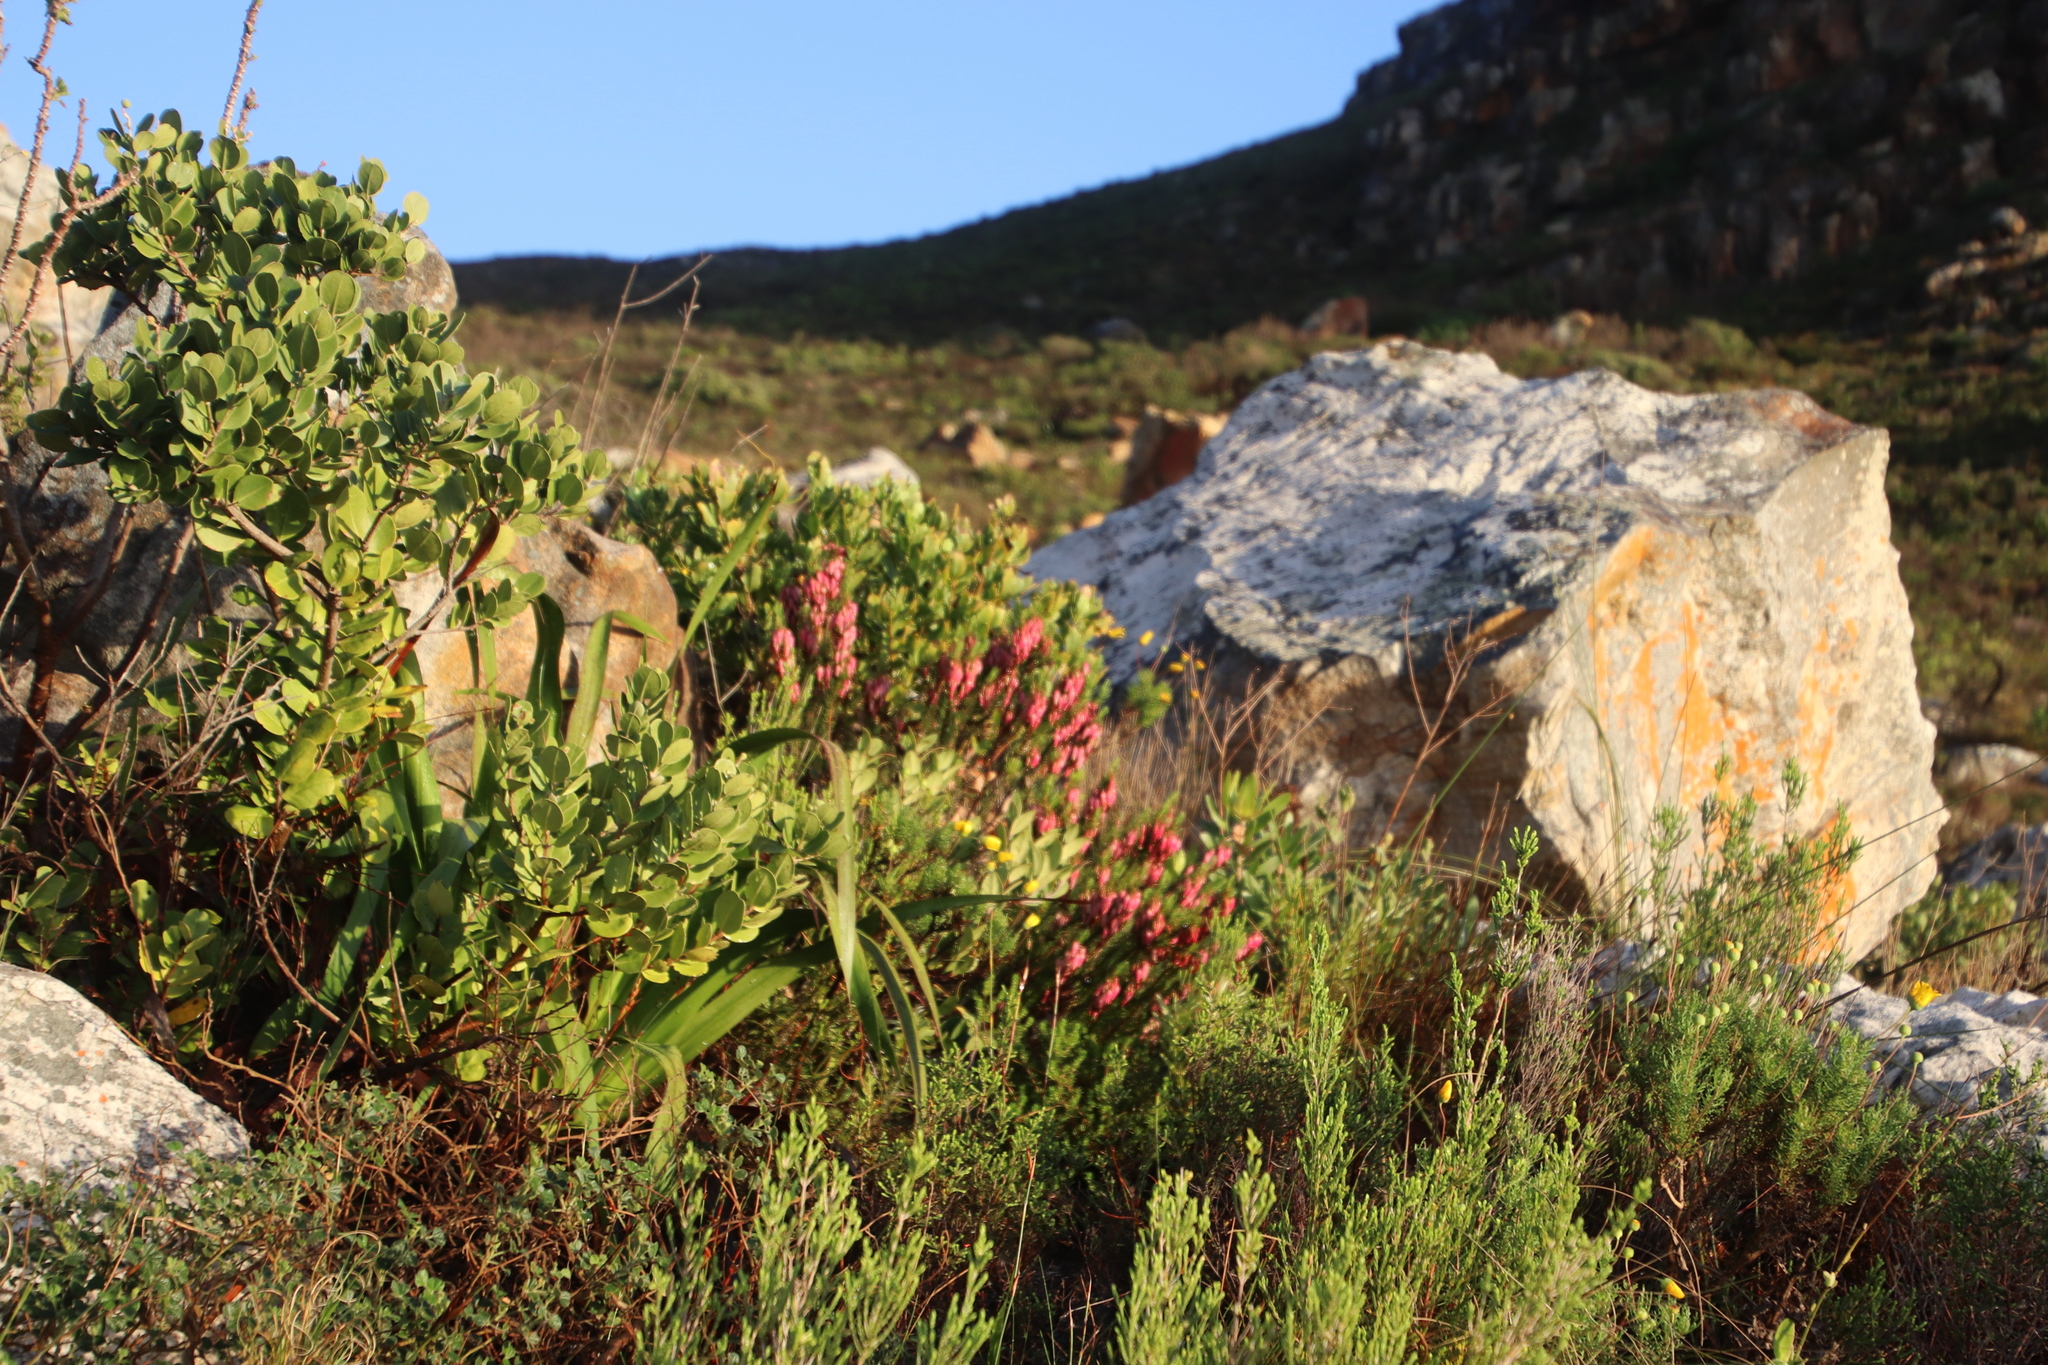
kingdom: Plantae
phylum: Tracheophyta
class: Magnoliopsida
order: Ericales
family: Ericaceae
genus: Erica
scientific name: Erica plukenetii
